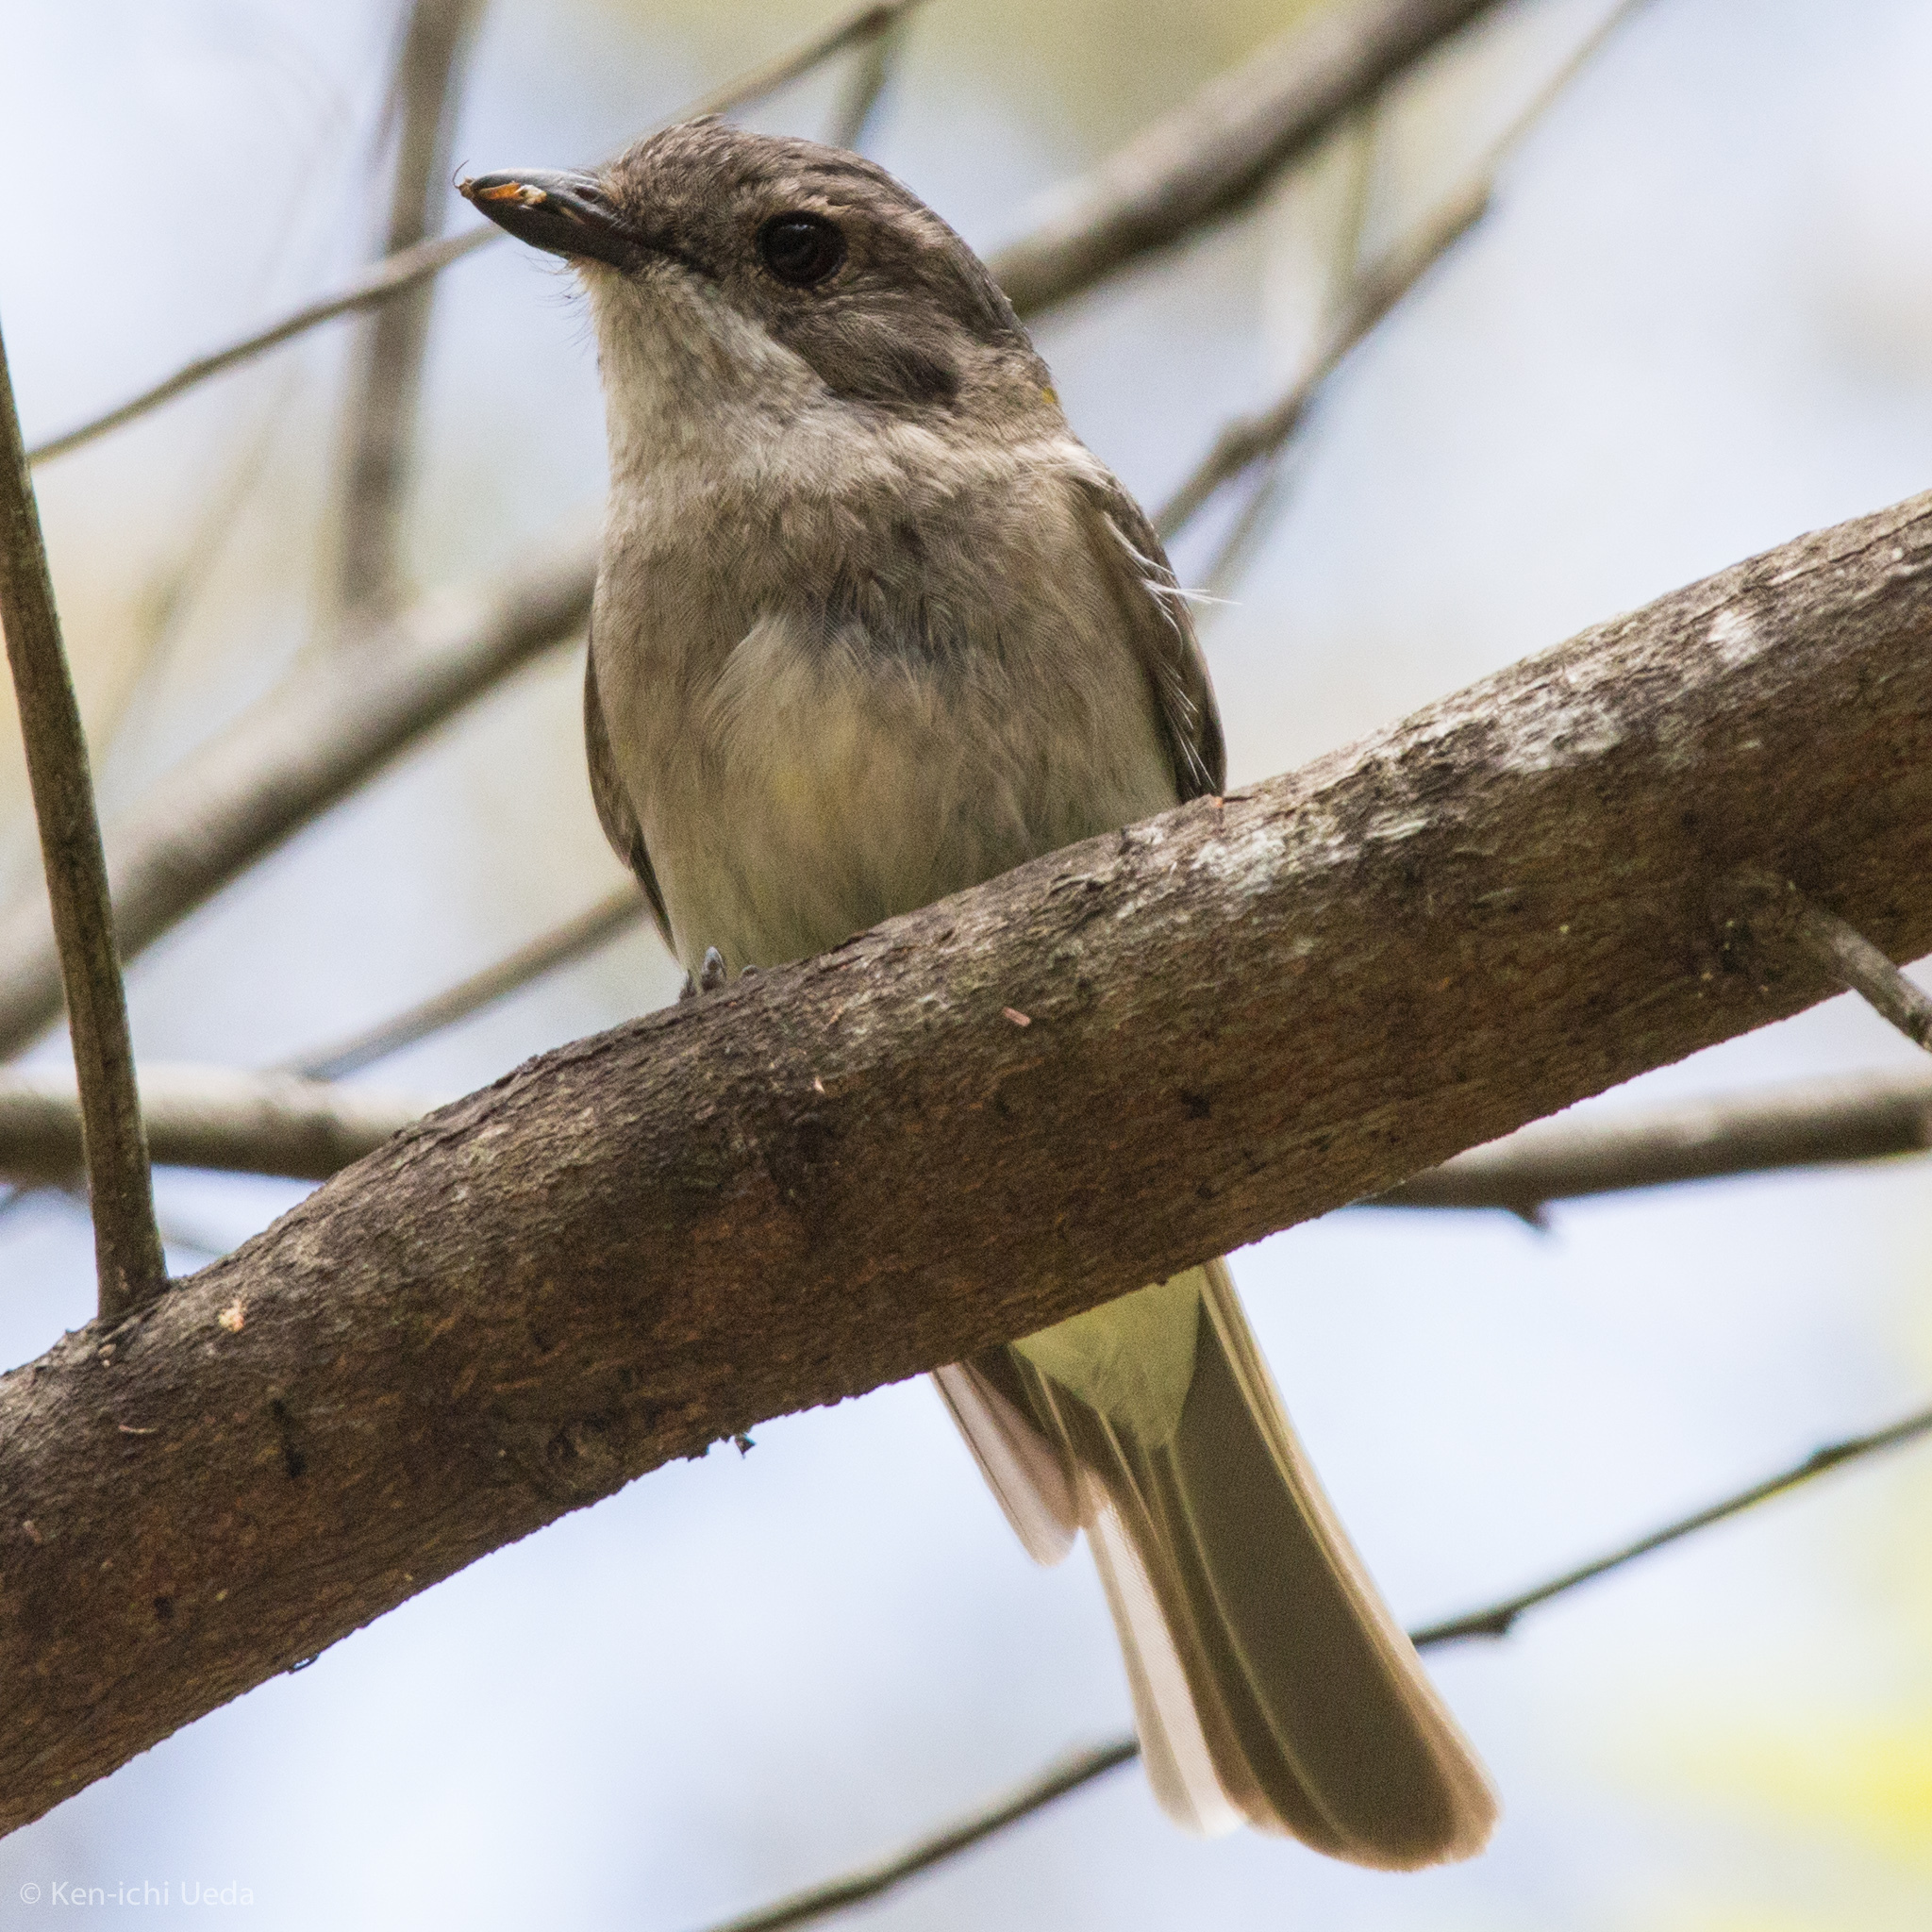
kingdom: Animalia
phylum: Chordata
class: Aves
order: Passeriformes
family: Pachycephalidae
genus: Pachycephala
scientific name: Pachycephala pectoralis
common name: Australian golden whistler
